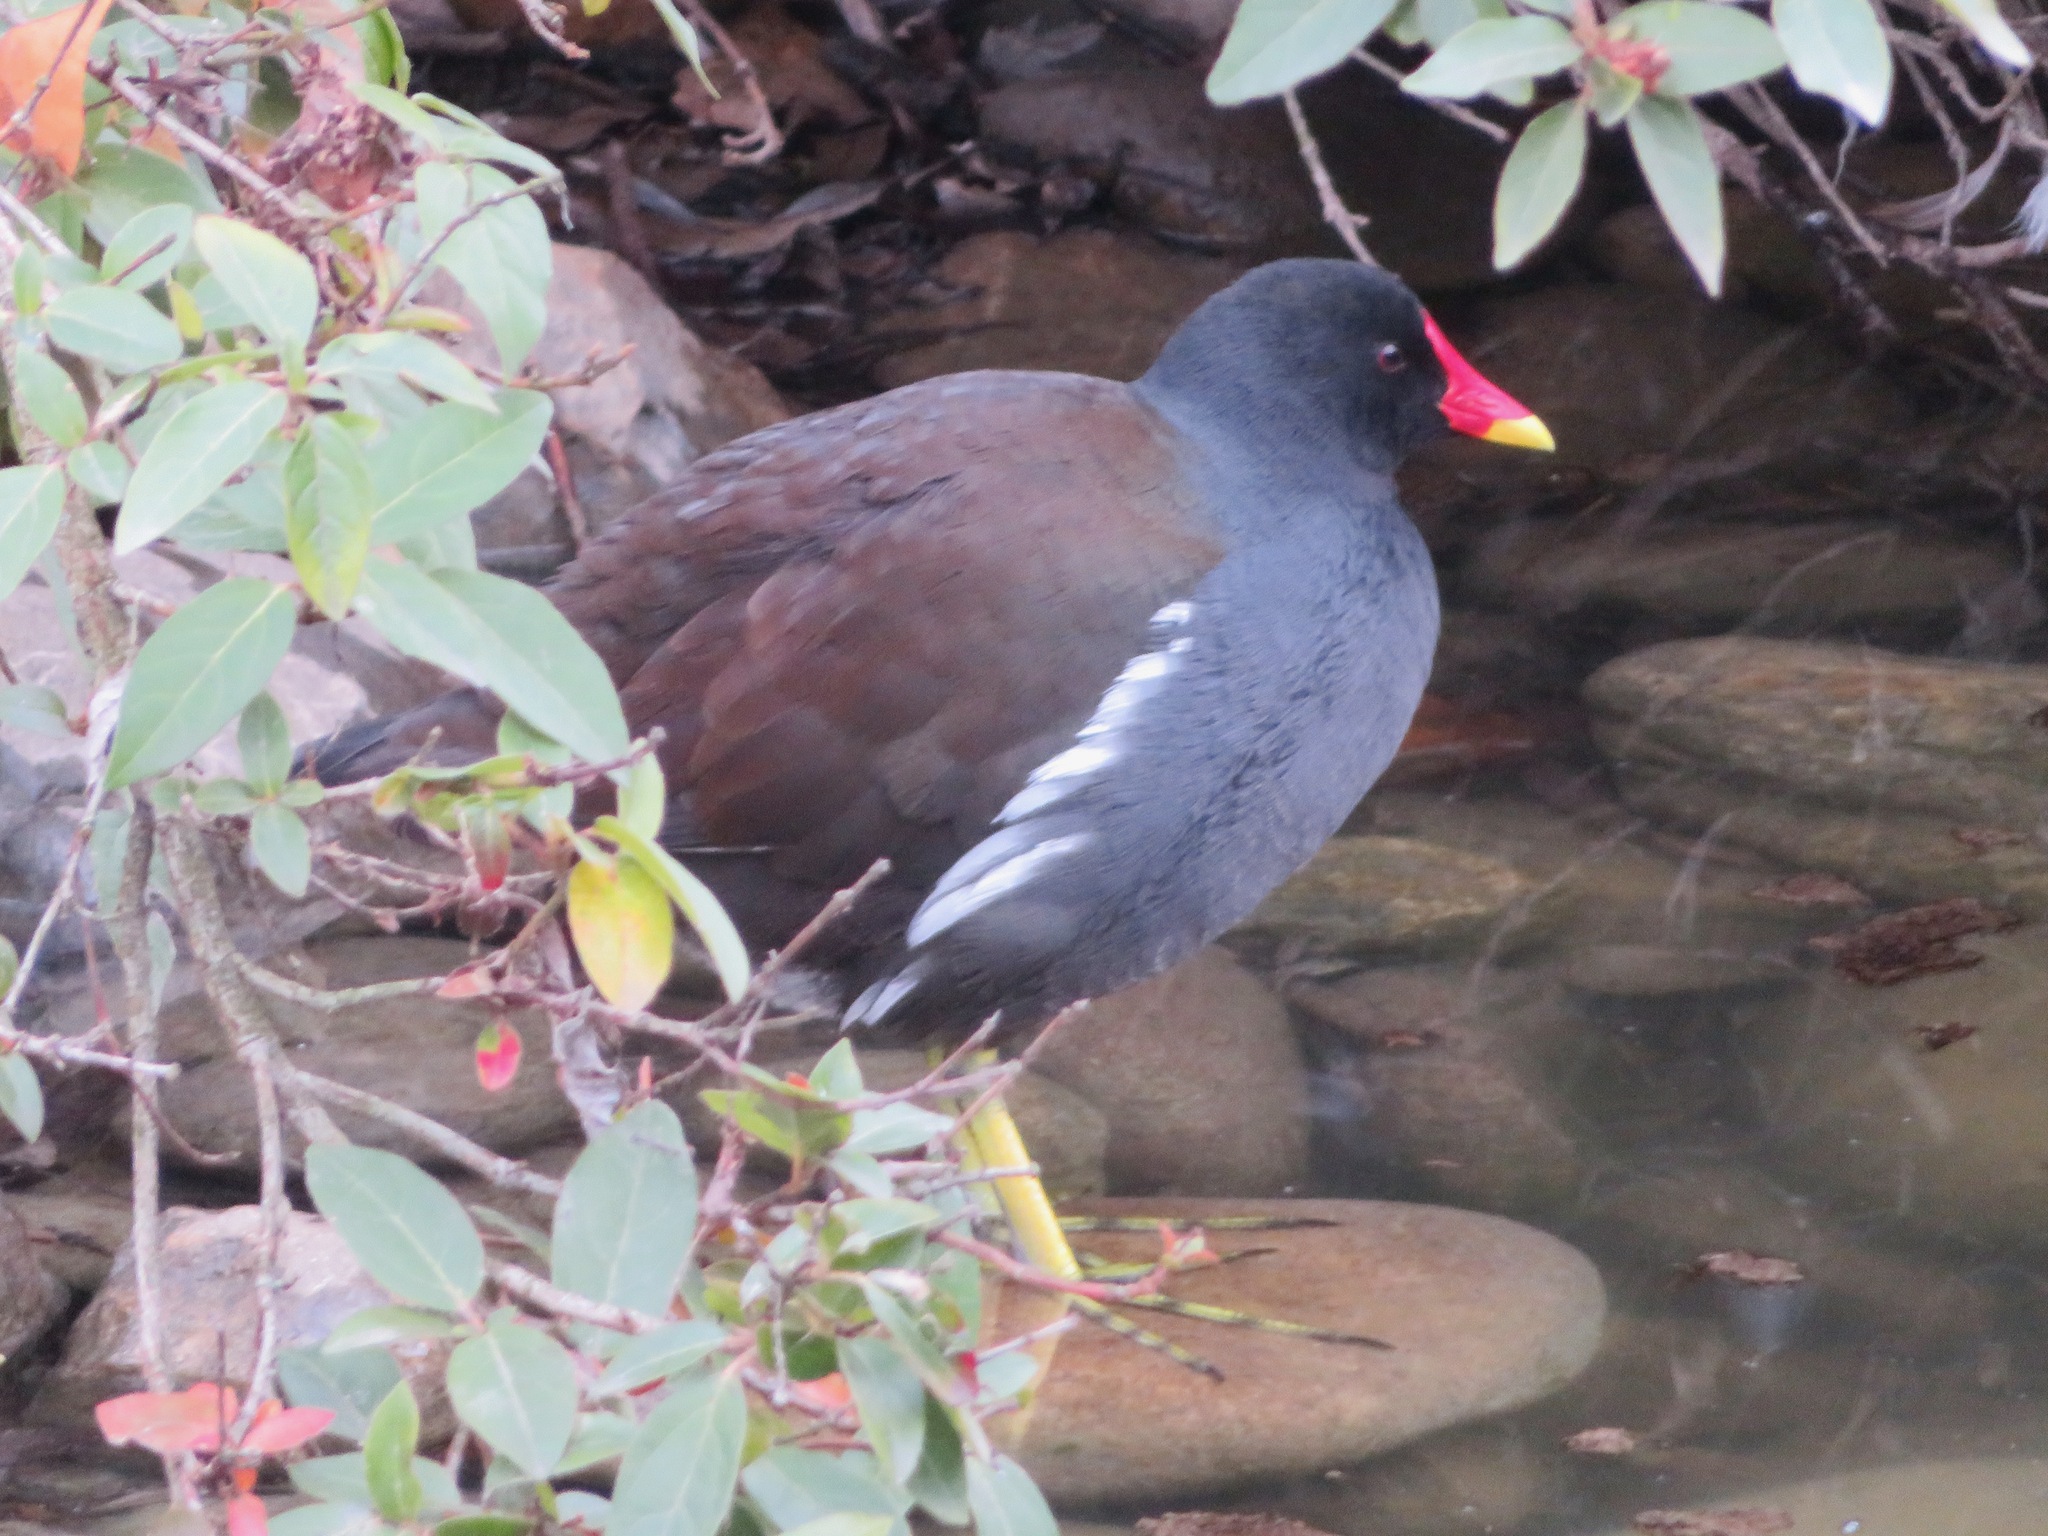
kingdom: Animalia
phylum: Chordata
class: Aves
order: Gruiformes
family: Rallidae
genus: Gallinula
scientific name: Gallinula chloropus
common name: Common moorhen
